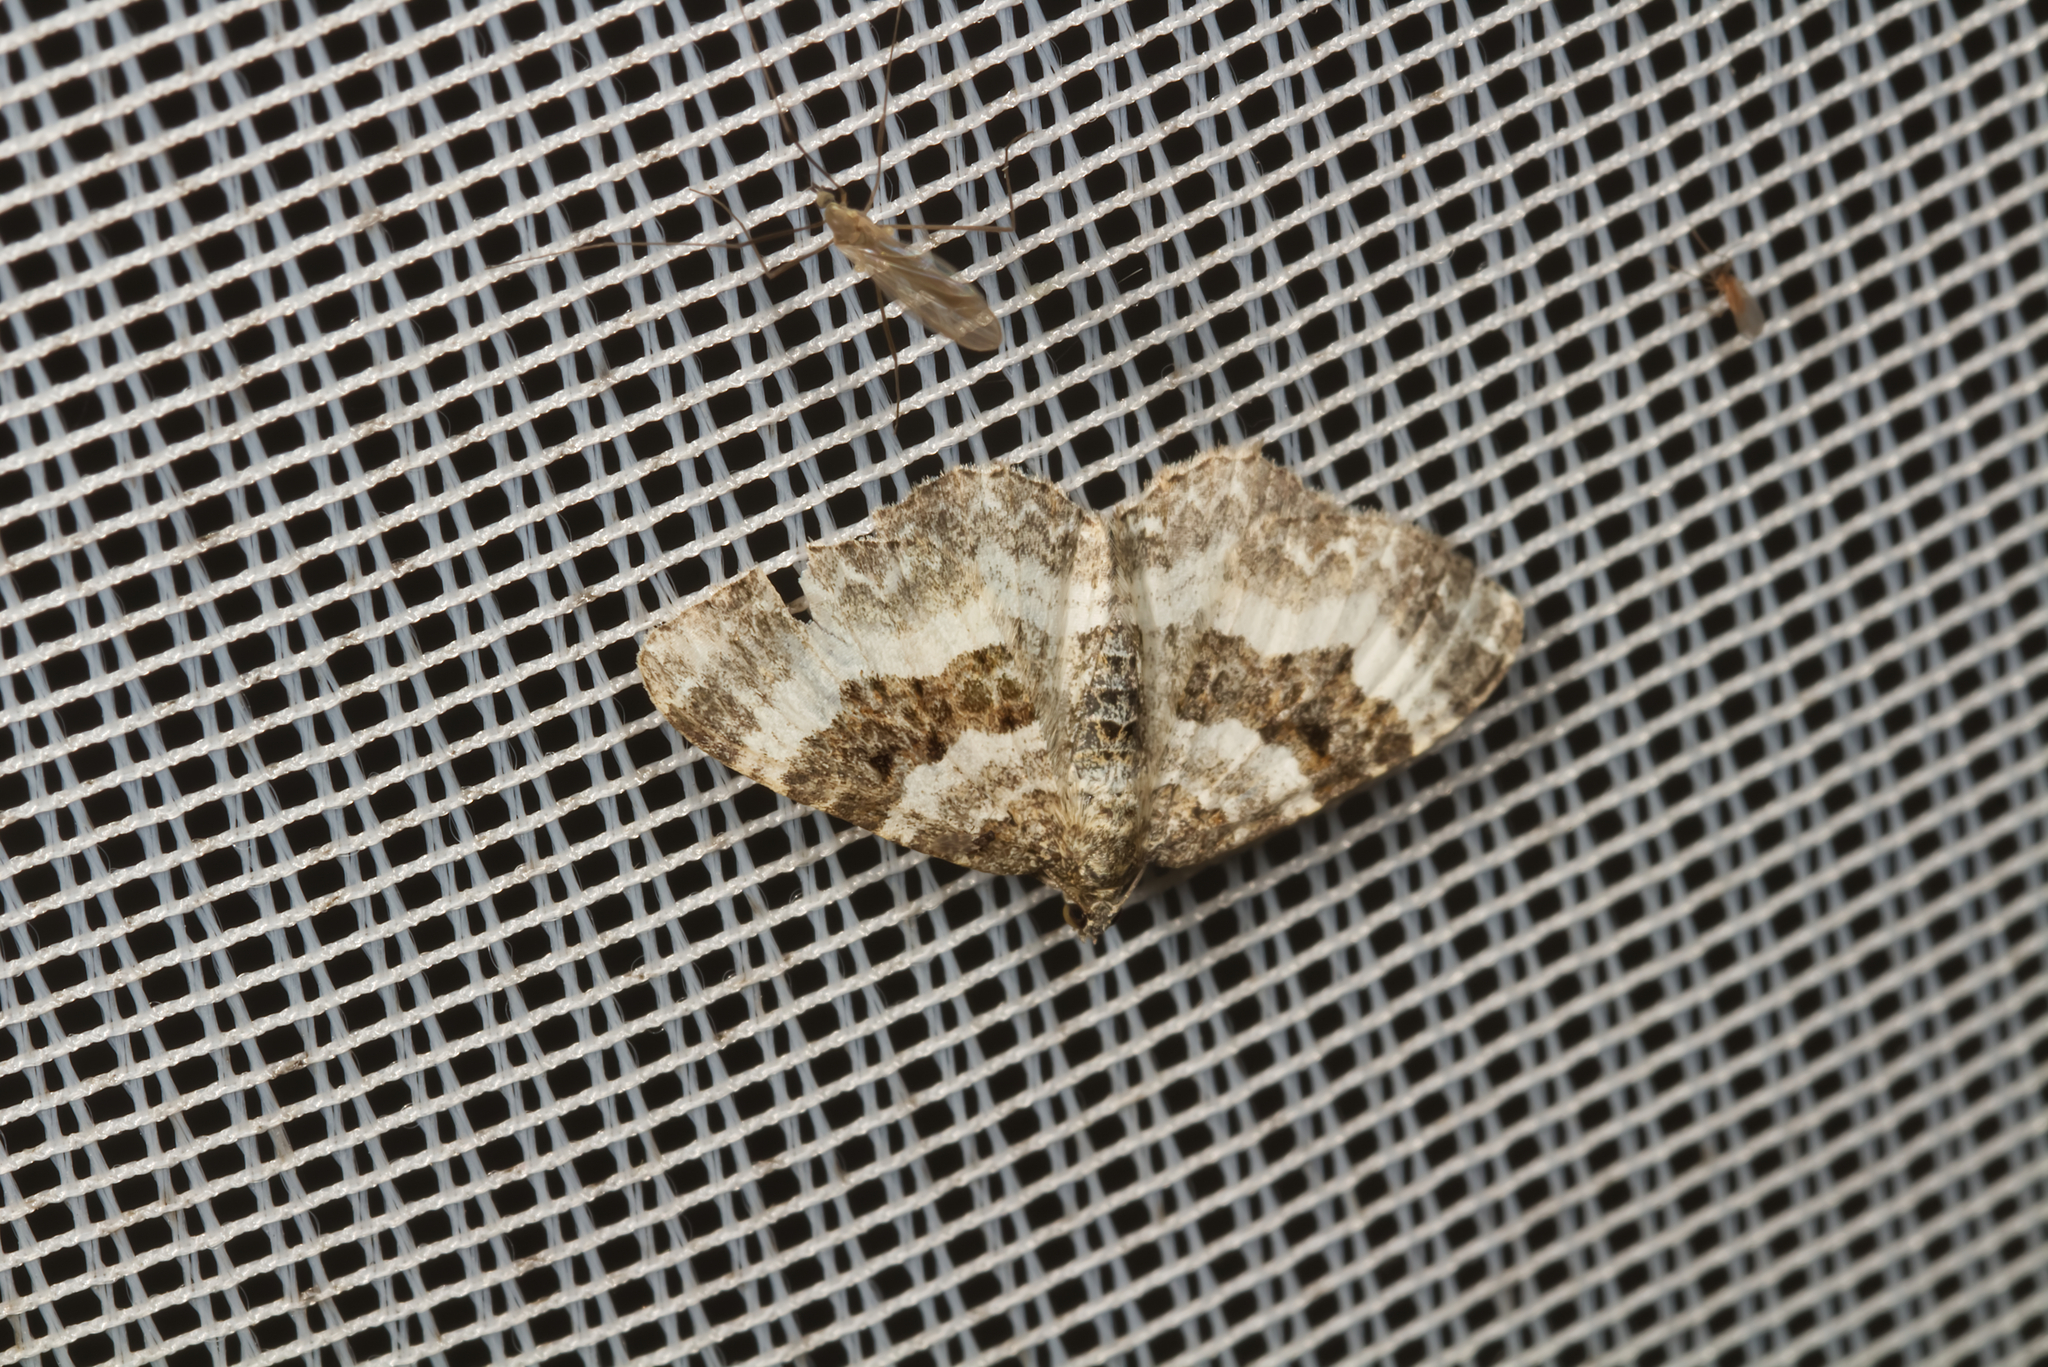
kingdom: Animalia
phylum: Arthropoda
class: Insecta
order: Lepidoptera
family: Geometridae
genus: Epirrhoe
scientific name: Epirrhoe alternata
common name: Common carpet
